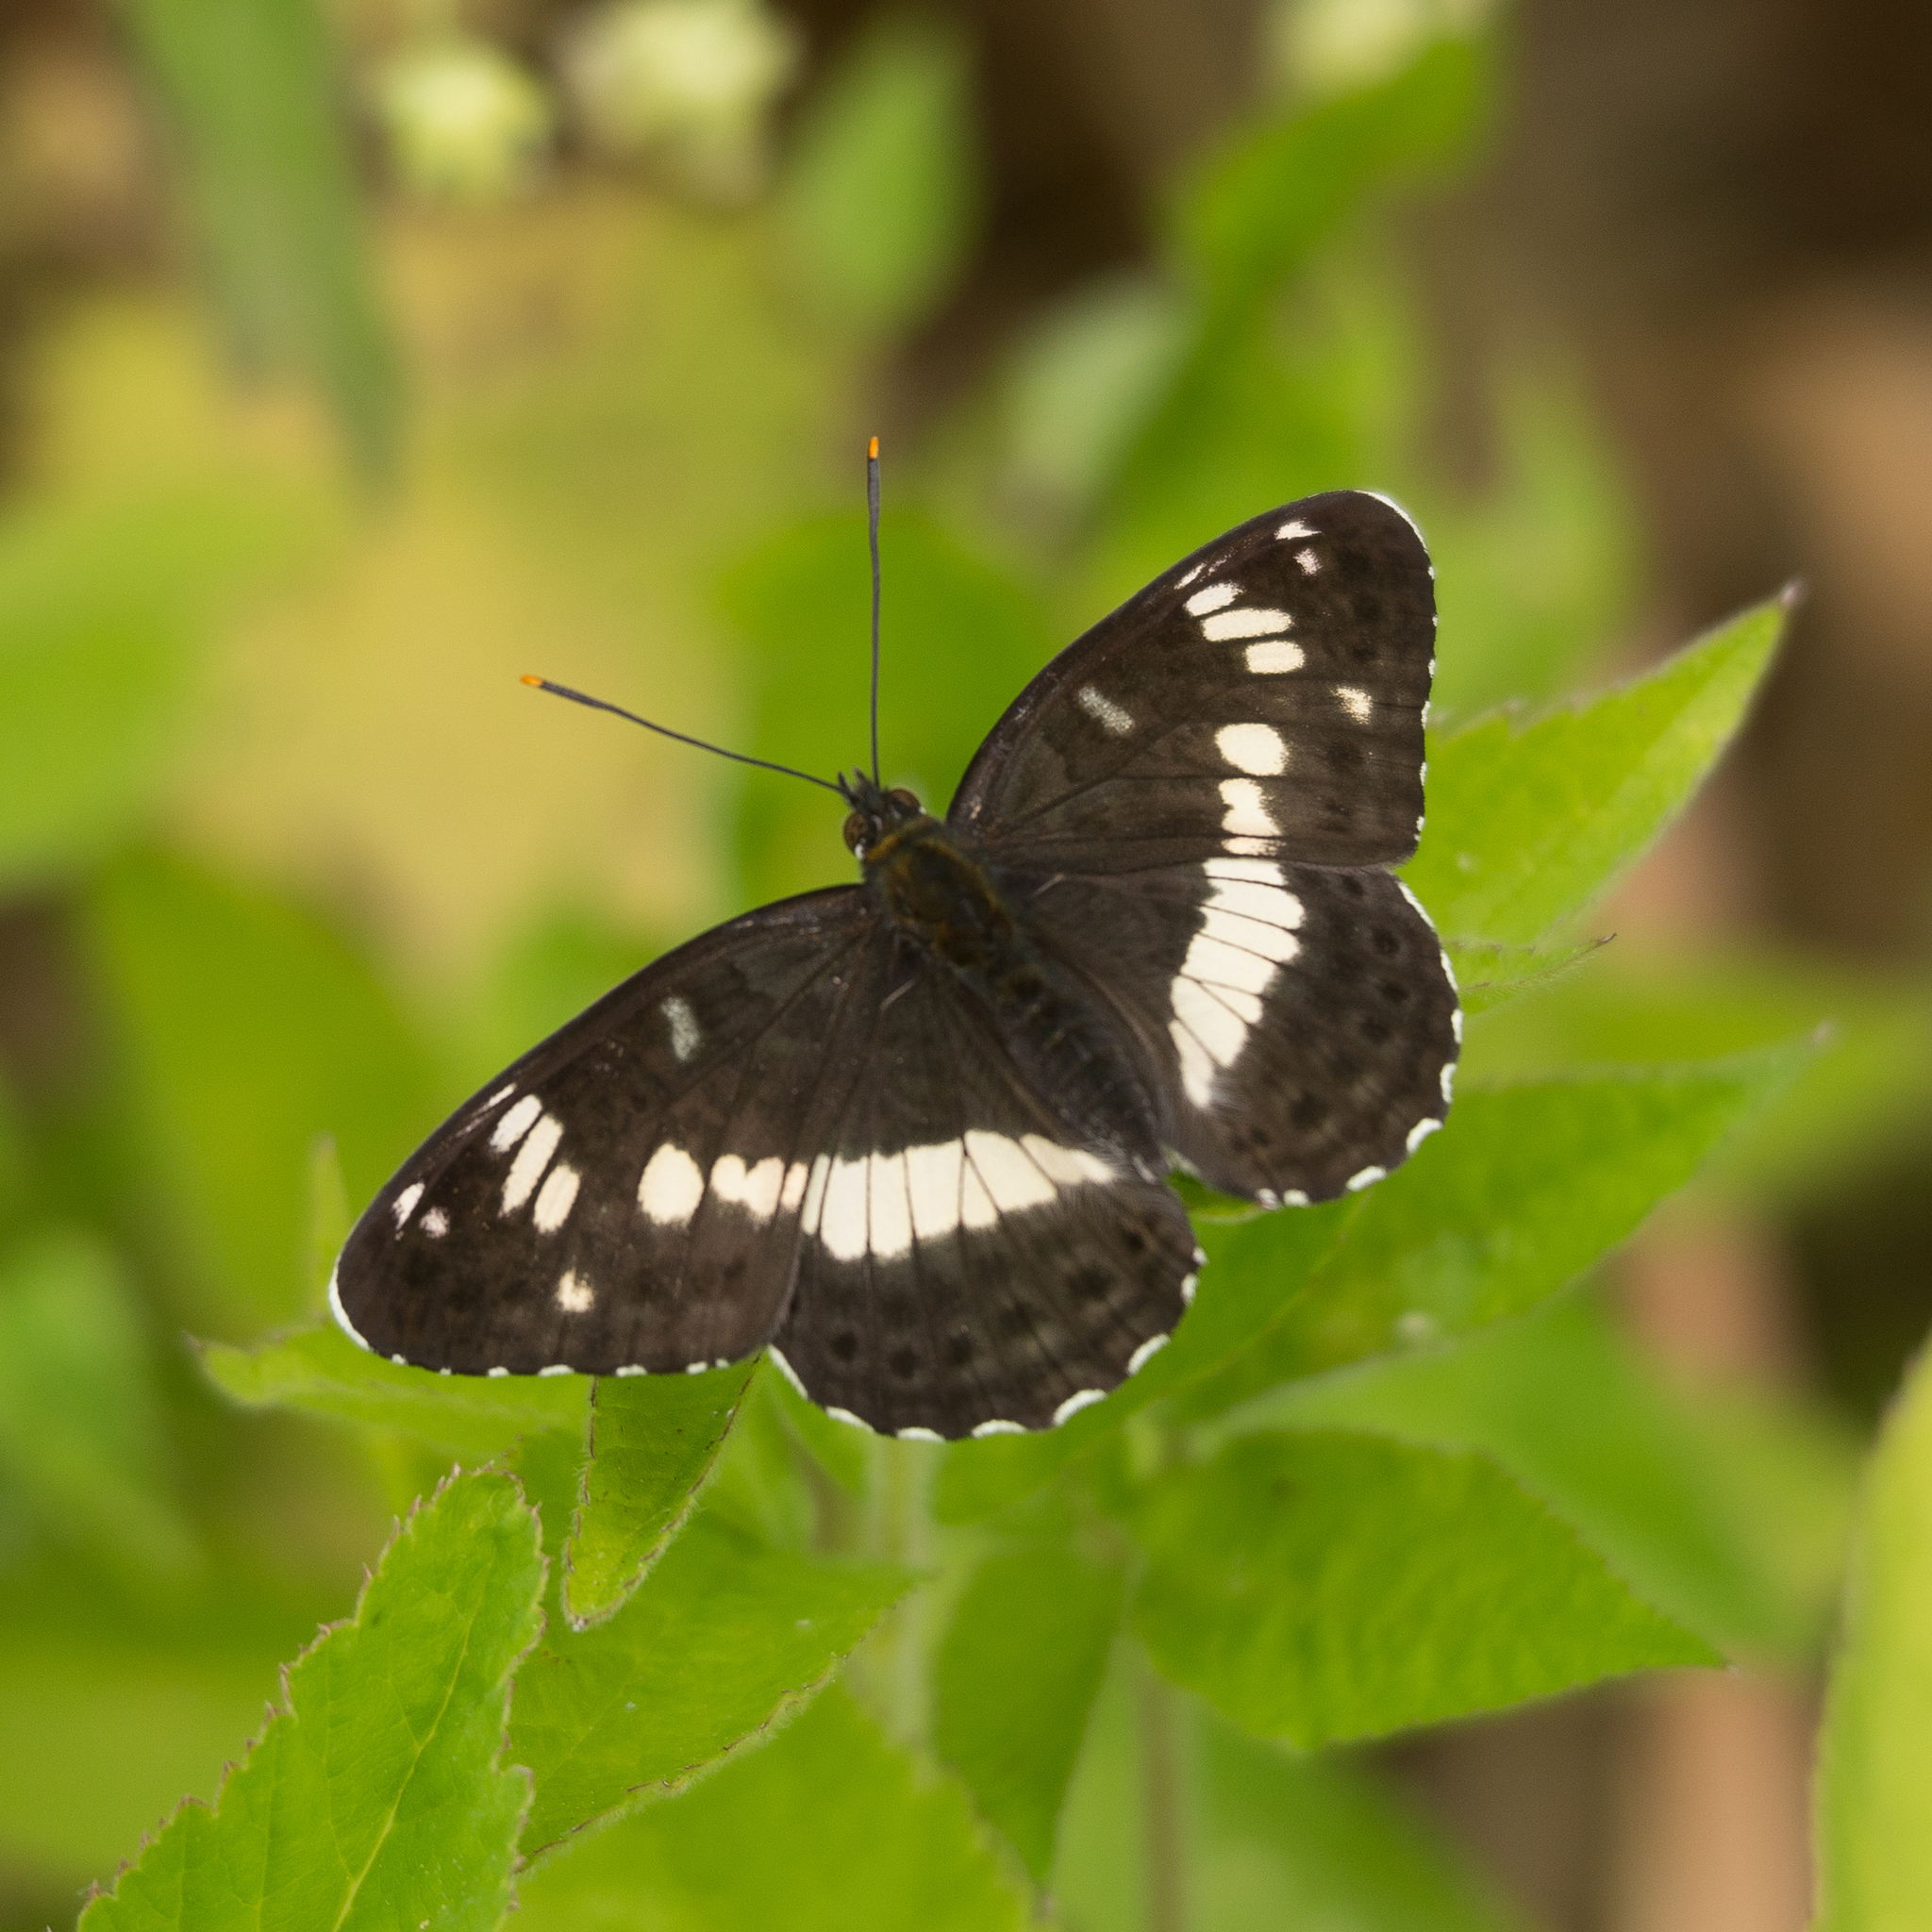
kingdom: Animalia
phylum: Arthropoda
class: Insecta
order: Lepidoptera
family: Nymphalidae
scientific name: Nymphalidae
